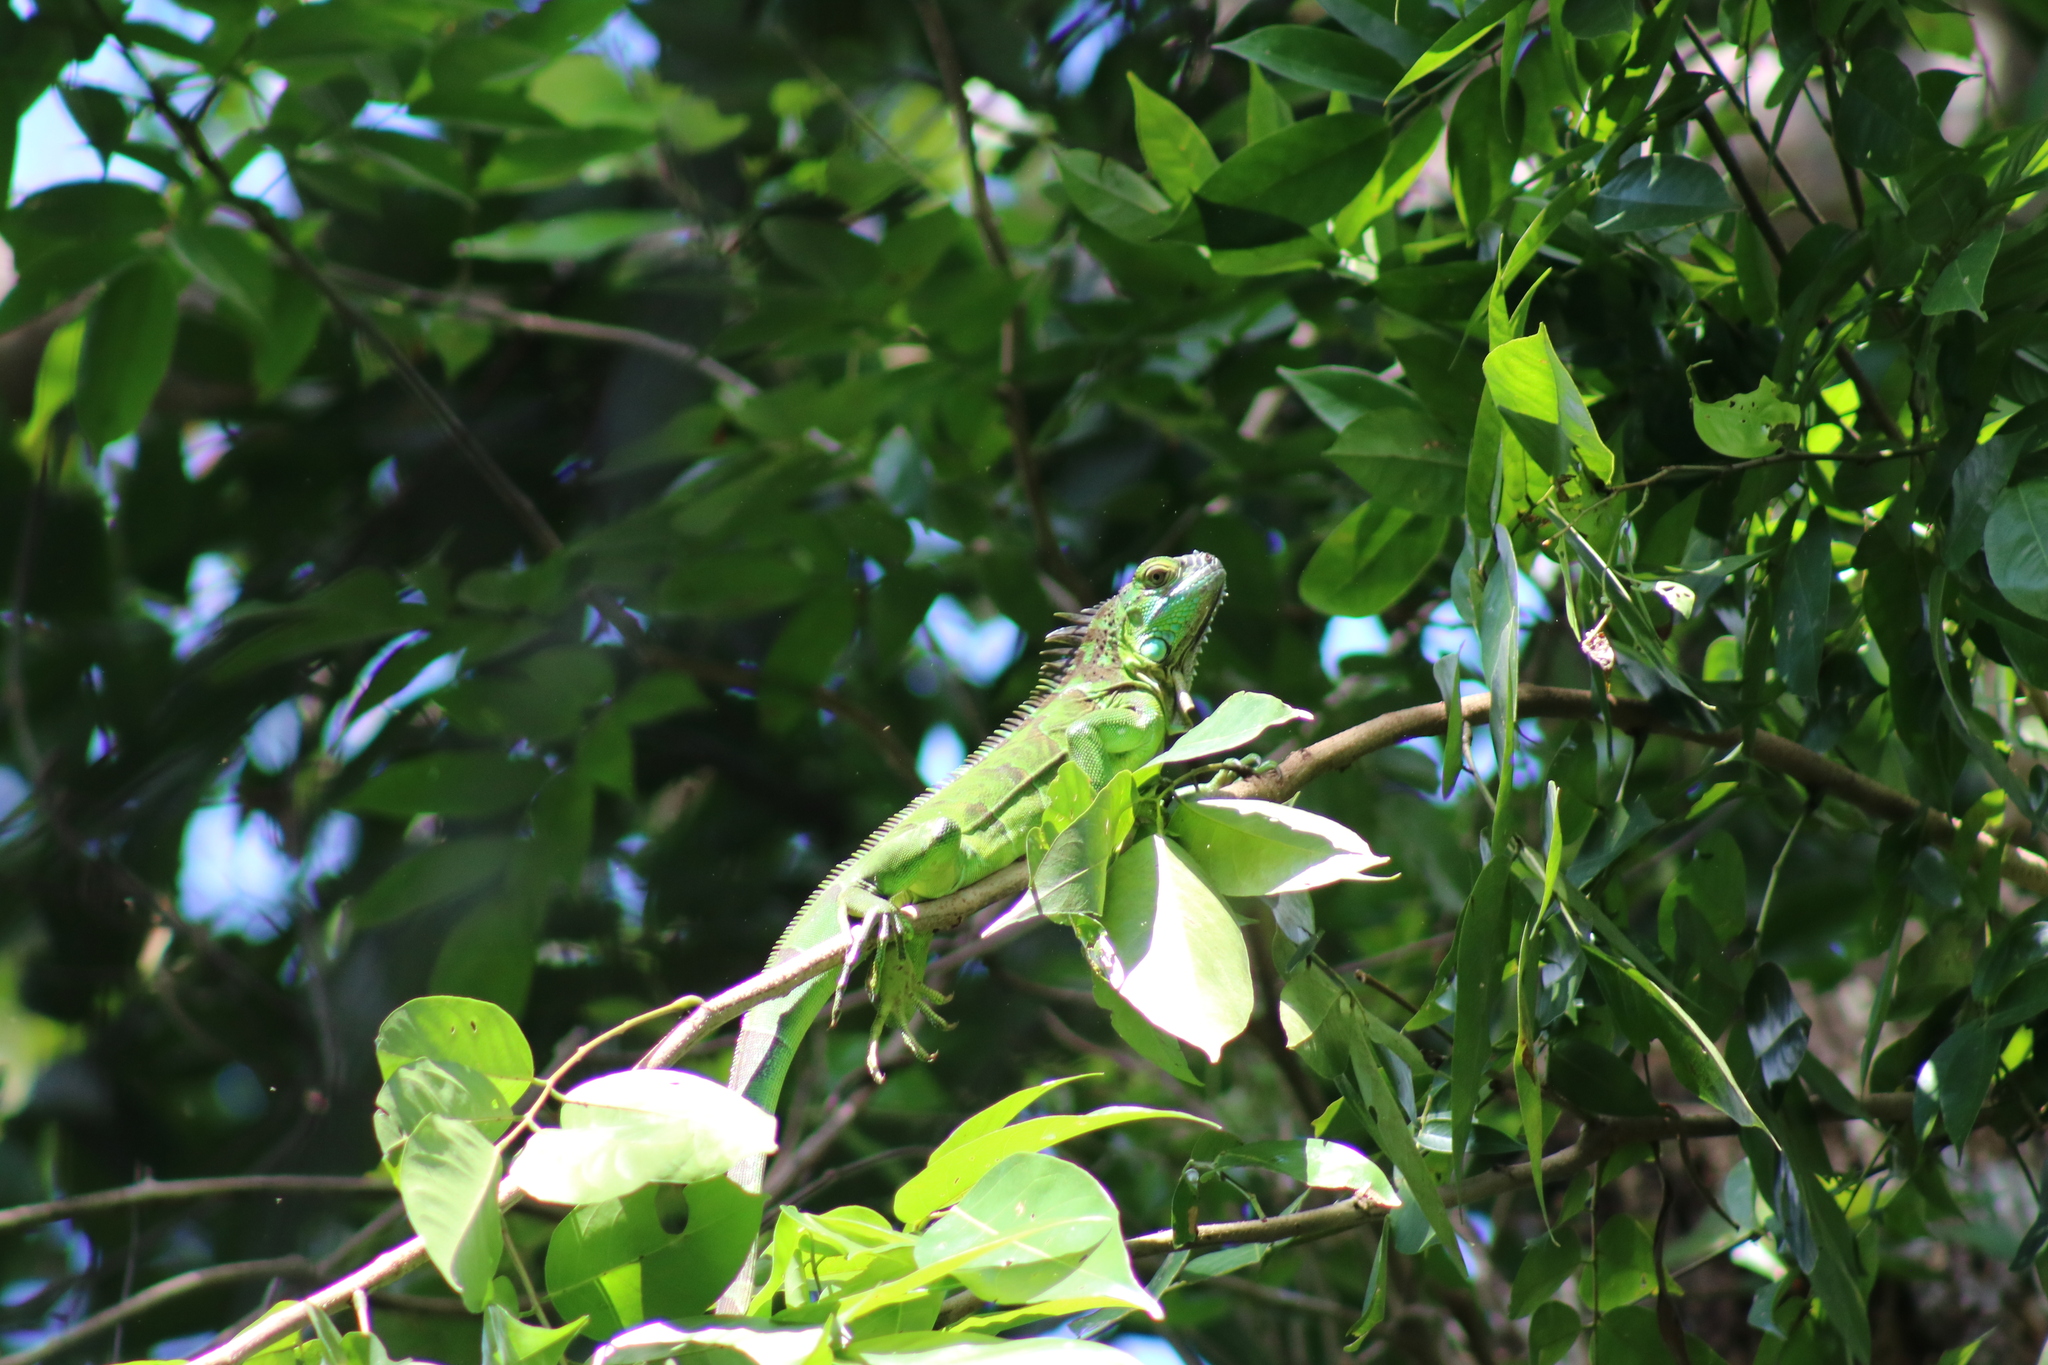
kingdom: Animalia
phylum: Chordata
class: Squamata
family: Iguanidae
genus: Iguana
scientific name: Iguana iguana
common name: Green iguana
